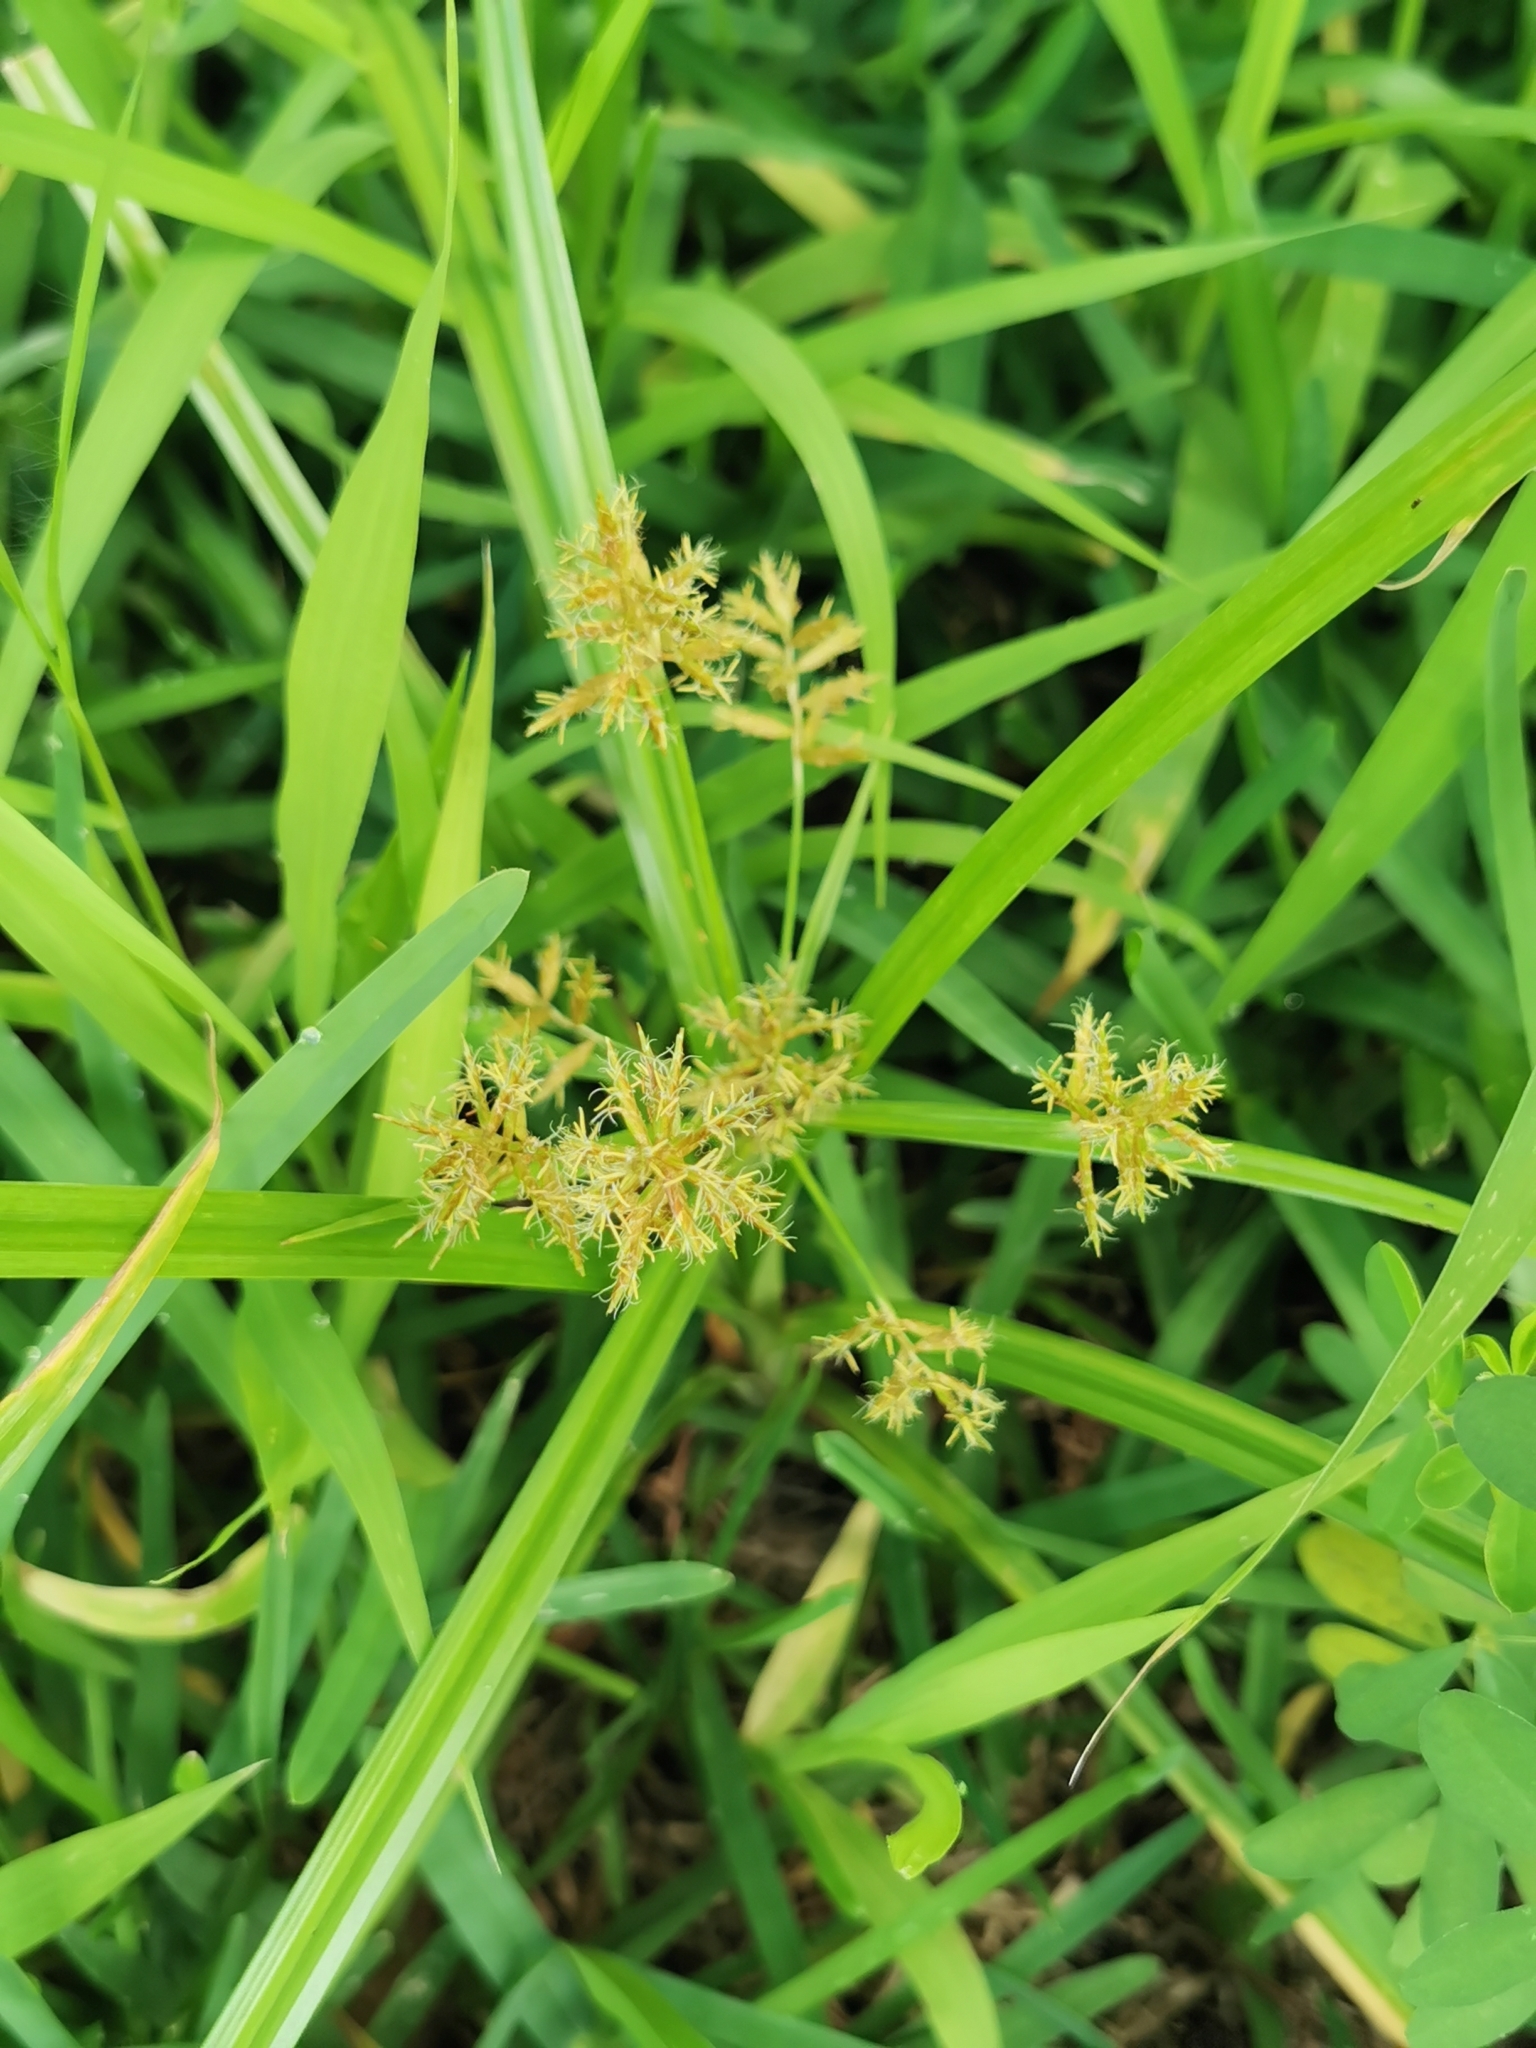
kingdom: Plantae
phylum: Tracheophyta
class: Liliopsida
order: Poales
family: Cyperaceae
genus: Cyperus
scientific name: Cyperus esculentus
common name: Yellow nutsedge
